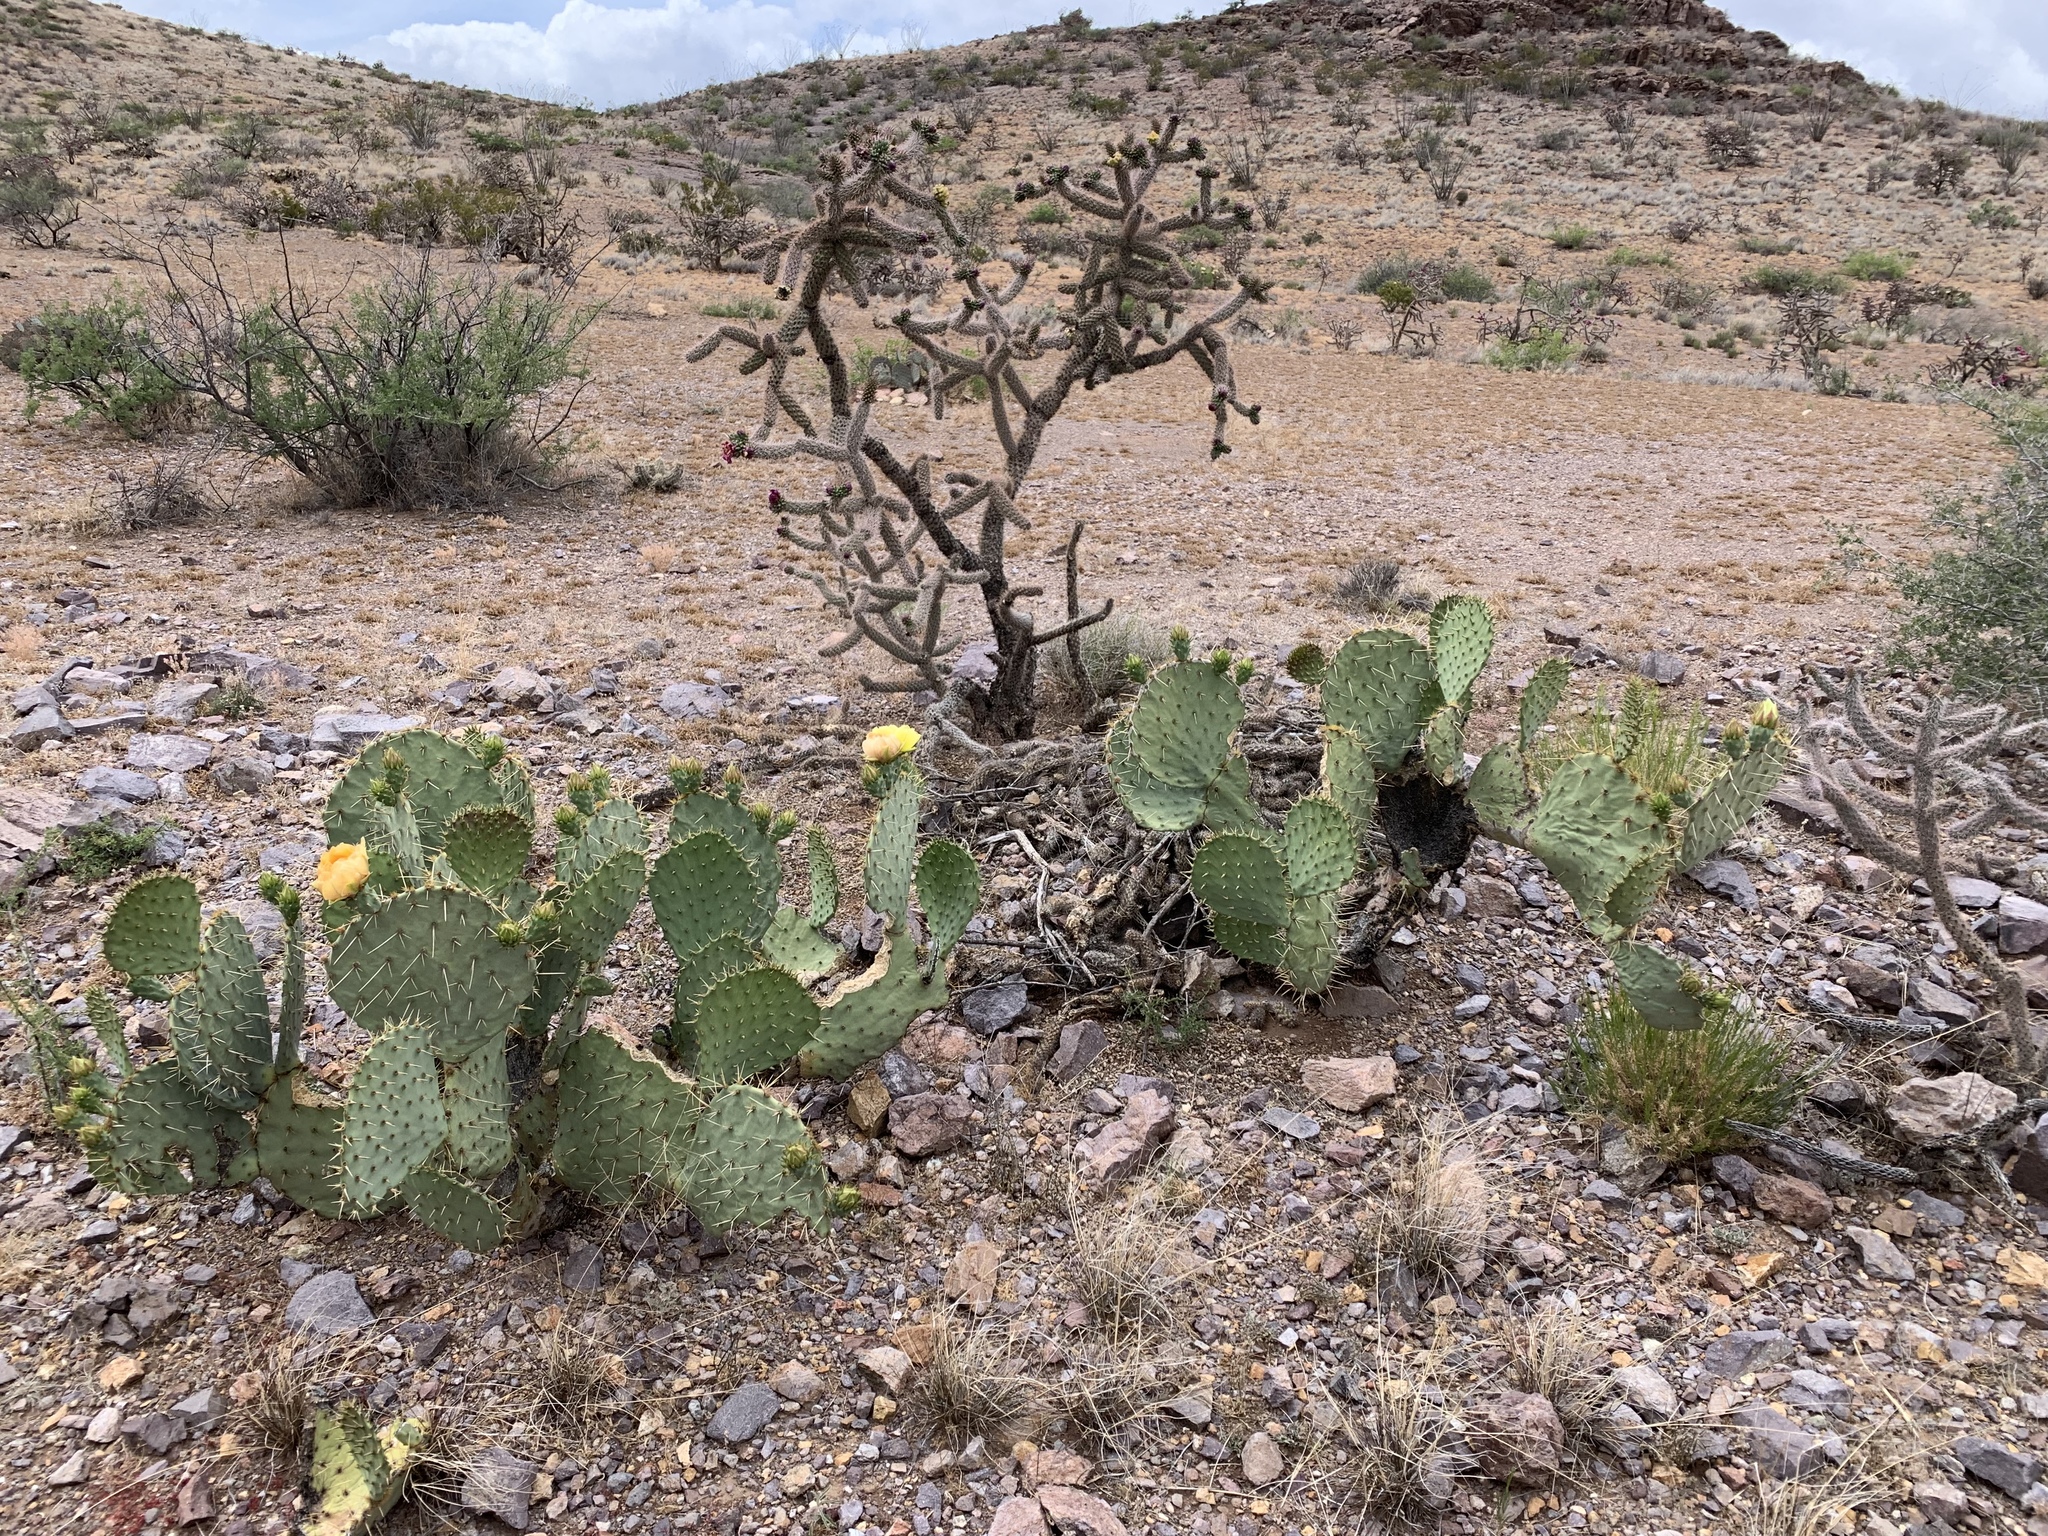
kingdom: Plantae
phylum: Tracheophyta
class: Magnoliopsida
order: Caryophyllales
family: Cactaceae
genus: Opuntia
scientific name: Opuntia engelmannii
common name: Cactus-apple
